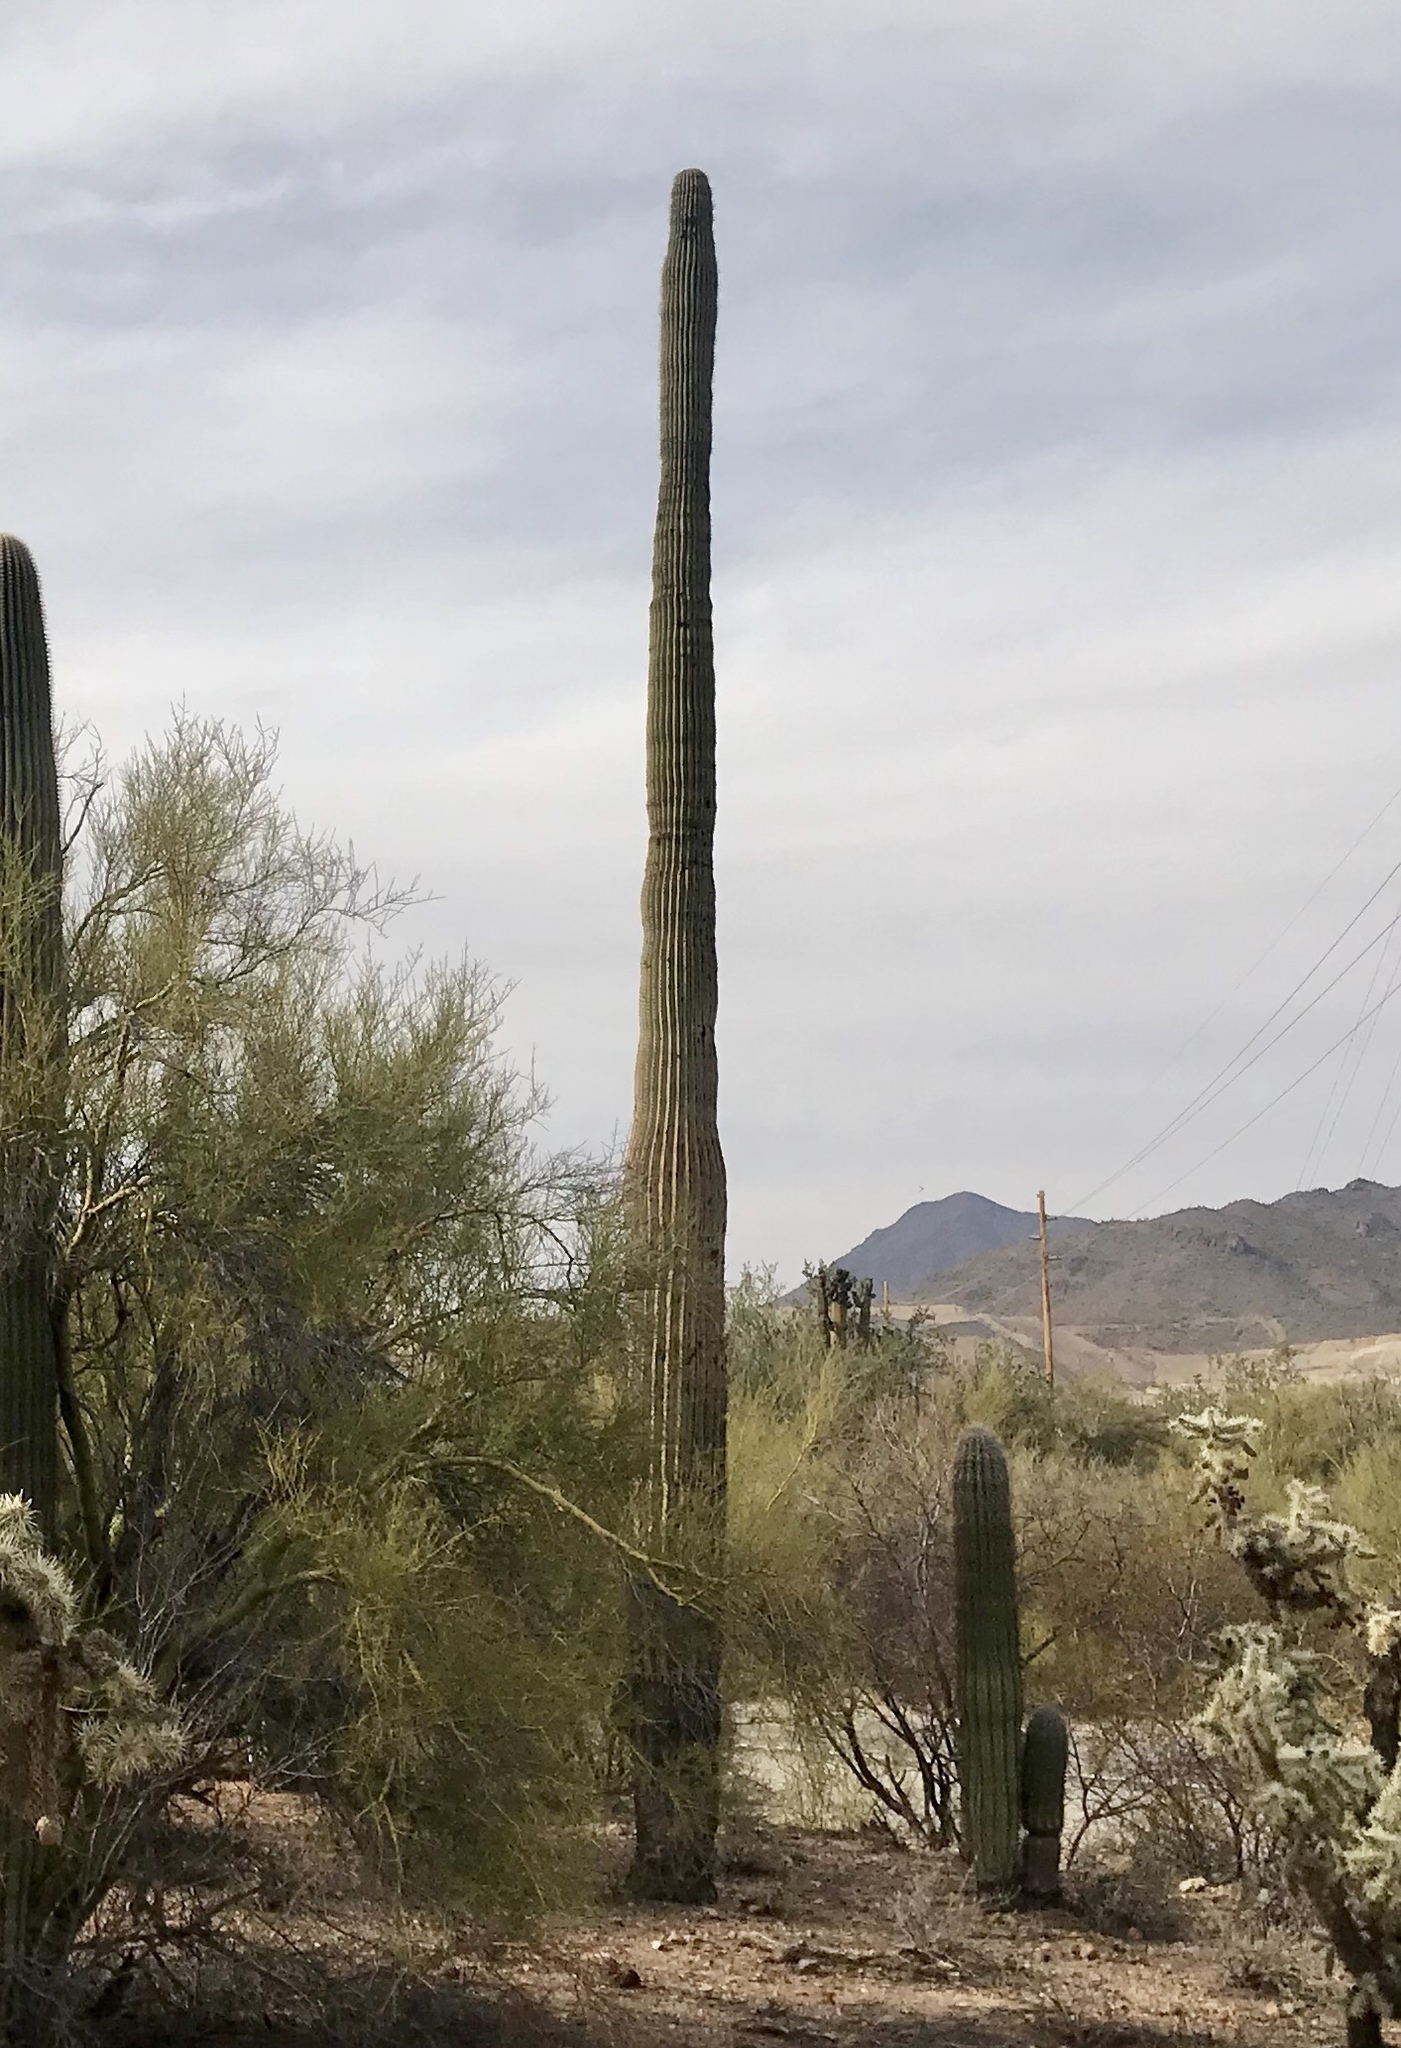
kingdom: Plantae
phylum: Tracheophyta
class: Magnoliopsida
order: Caryophyllales
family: Cactaceae
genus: Carnegiea
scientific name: Carnegiea gigantea
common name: Saguaro
